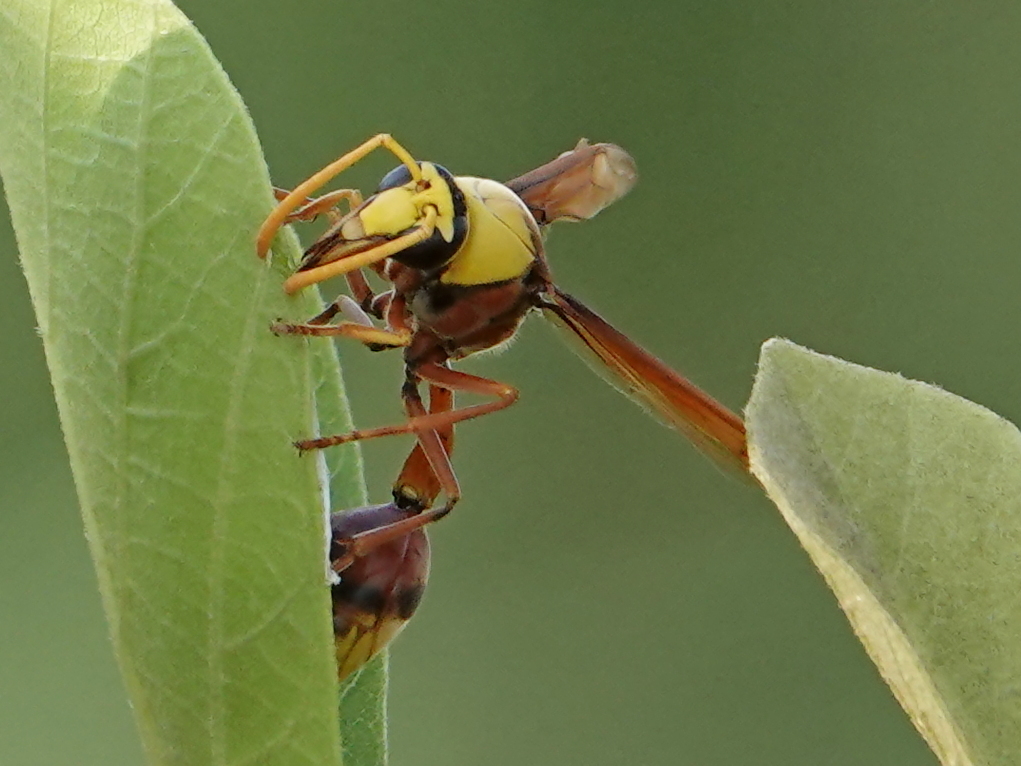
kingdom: Animalia
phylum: Arthropoda
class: Insecta
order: Hymenoptera
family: Eumenidae
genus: Delta
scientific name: Delta pyriforme
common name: Wasp
